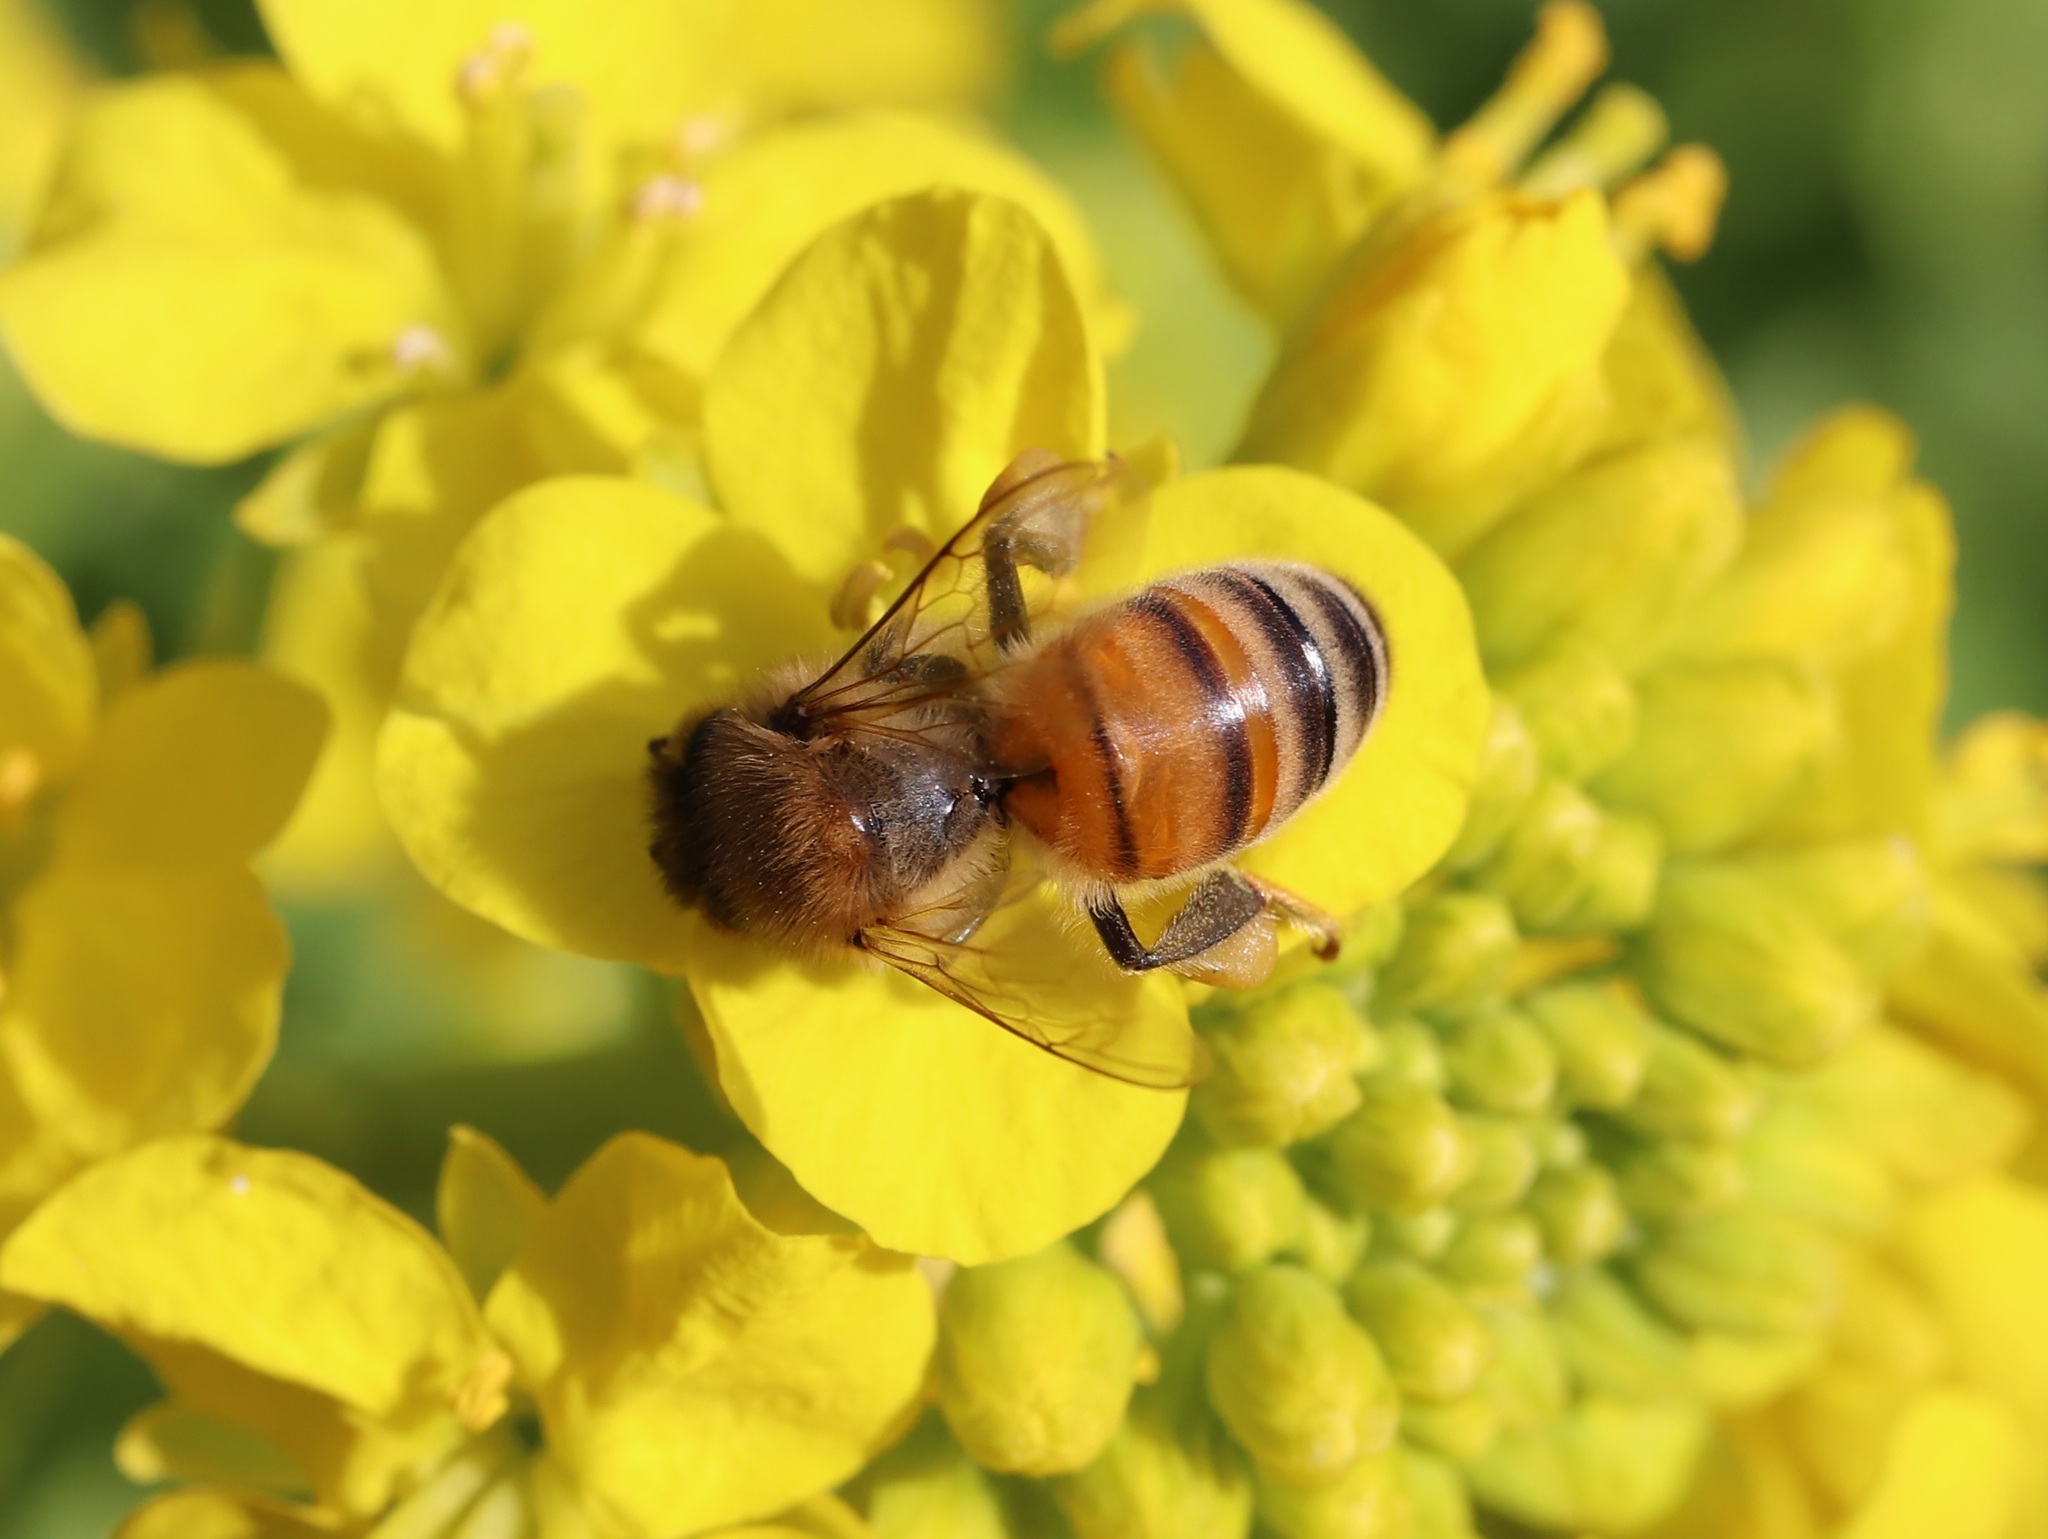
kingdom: Animalia
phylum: Arthropoda
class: Insecta
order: Hymenoptera
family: Apidae
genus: Apis
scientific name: Apis mellifera
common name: Honey bee
